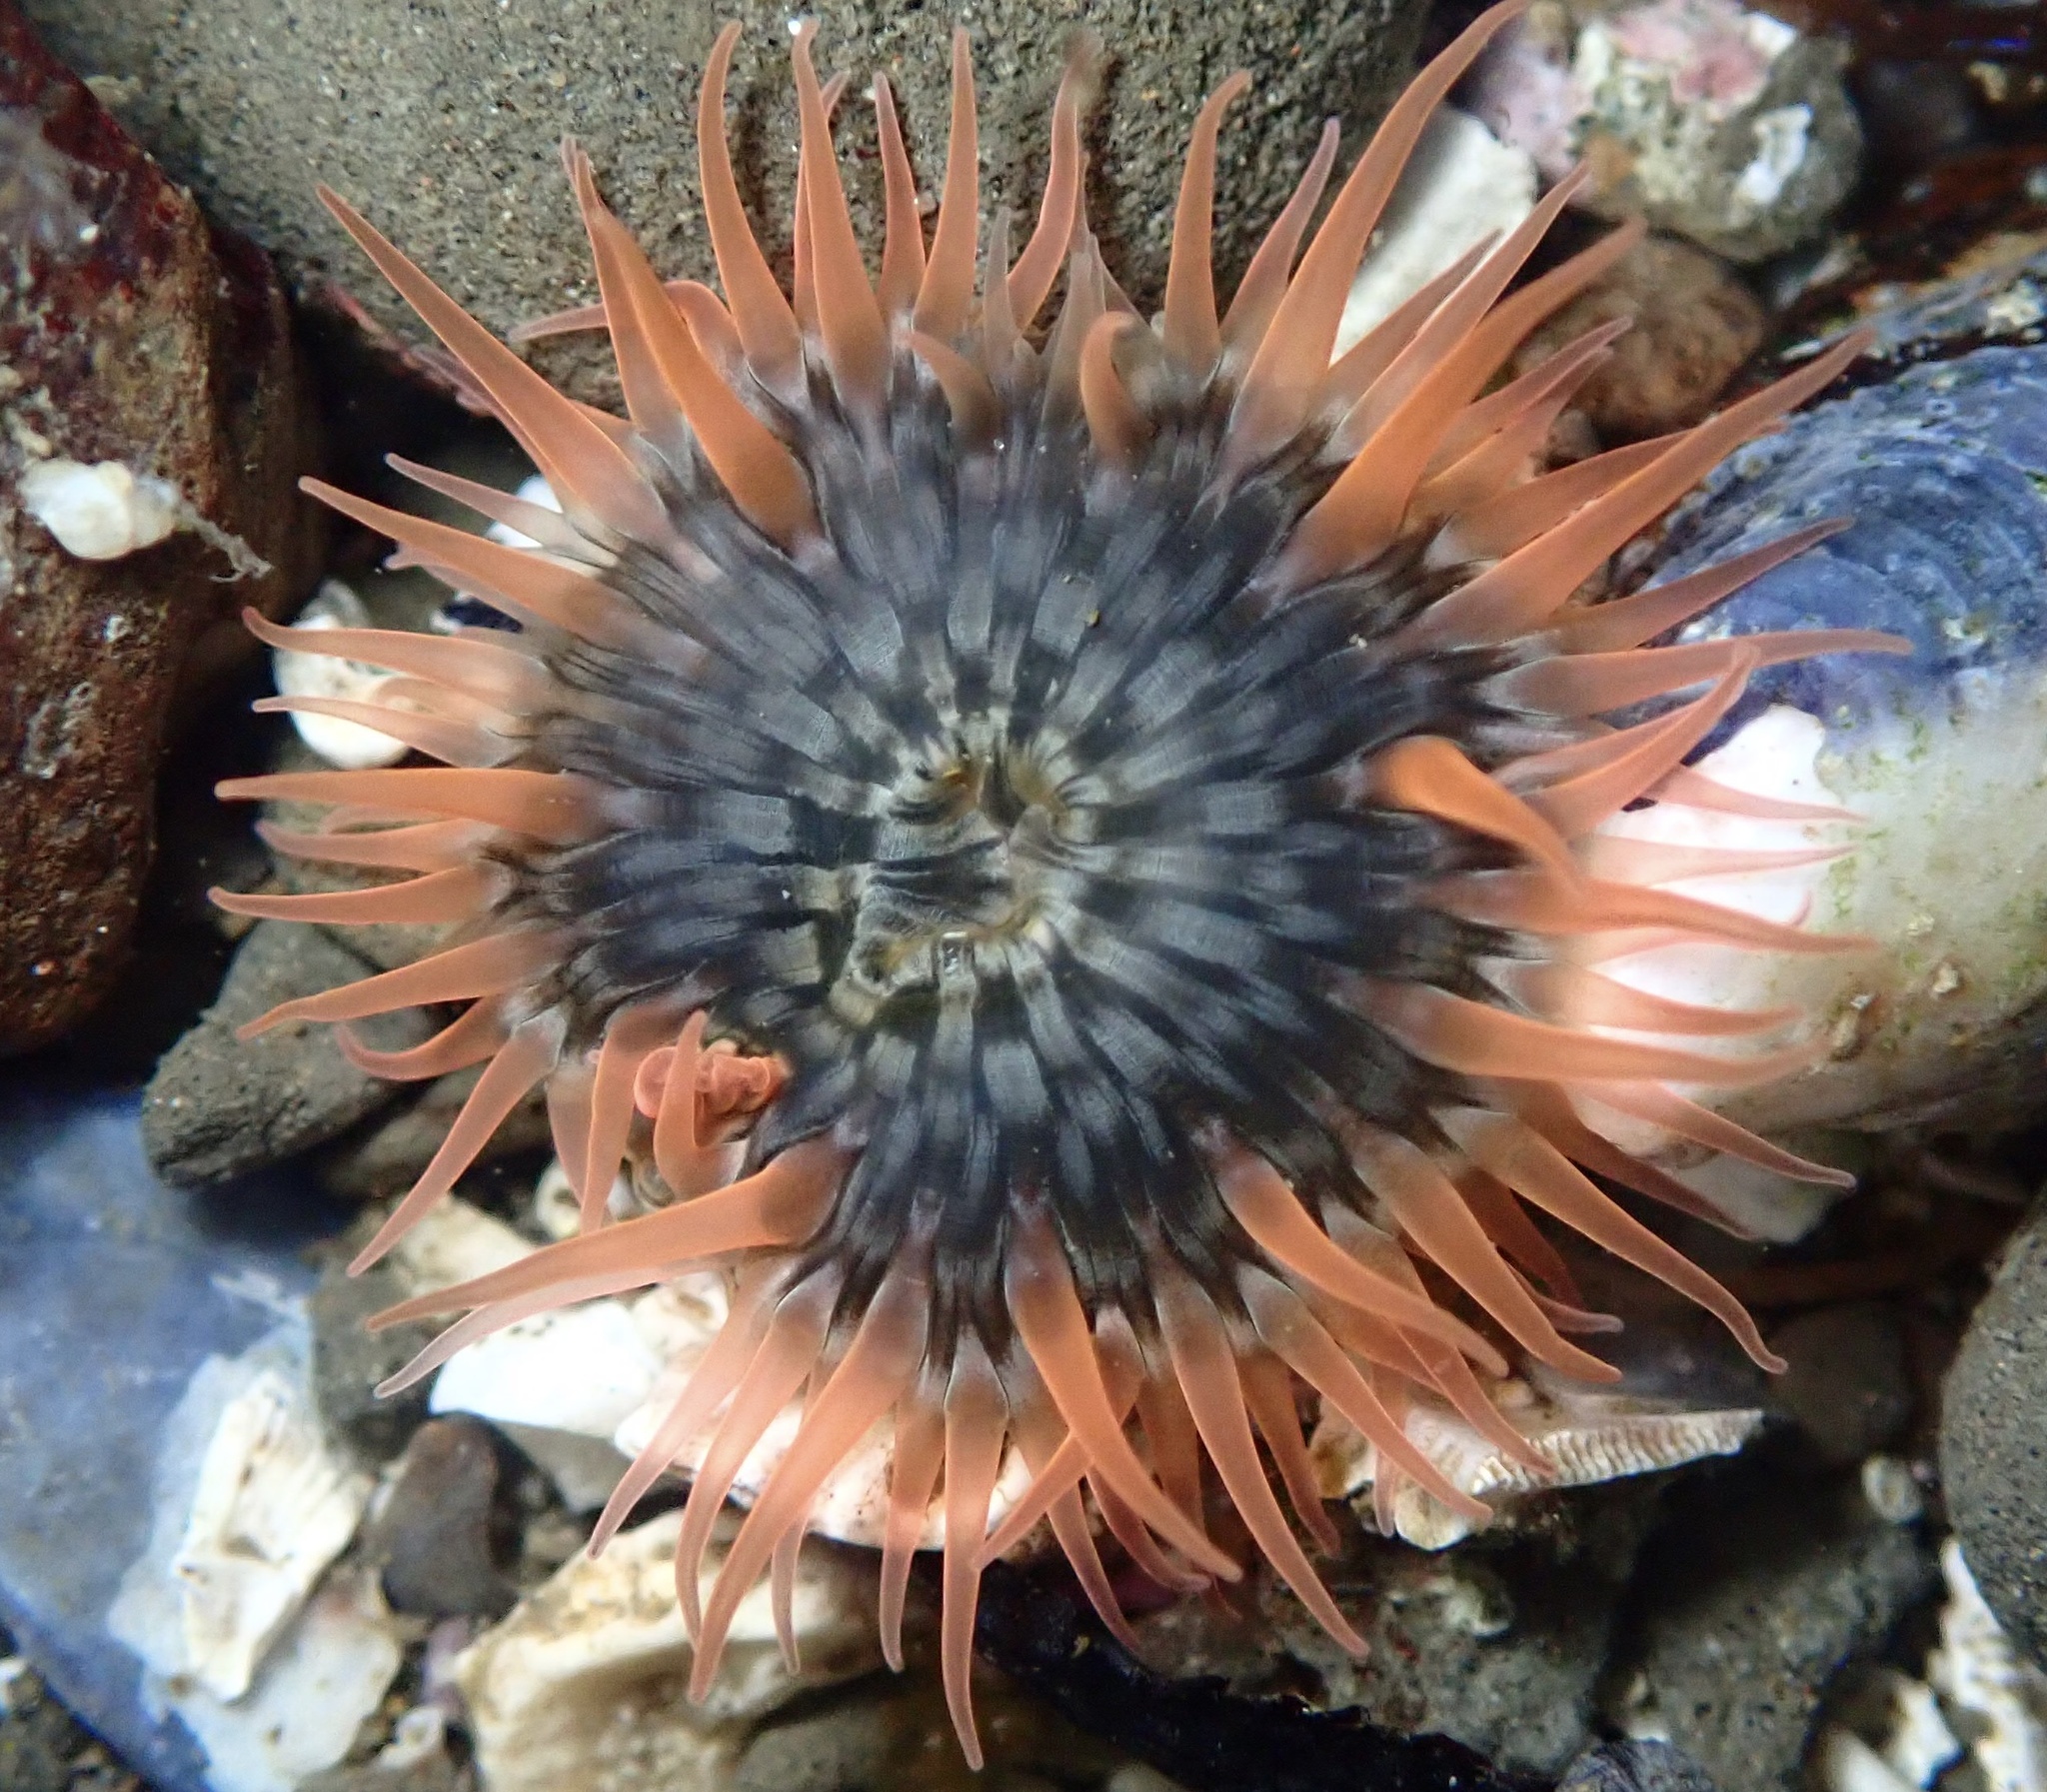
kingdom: Animalia
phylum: Cnidaria
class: Anthozoa
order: Actiniaria
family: Actiniidae
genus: Anthopleura
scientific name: Anthopleura artemisia
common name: Buried sea anemone
